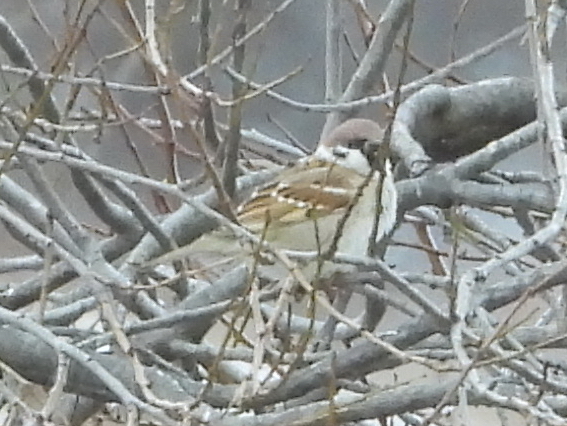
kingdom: Animalia
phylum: Chordata
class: Aves
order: Passeriformes
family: Passeridae
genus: Passer
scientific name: Passer montanus
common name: Eurasian tree sparrow
